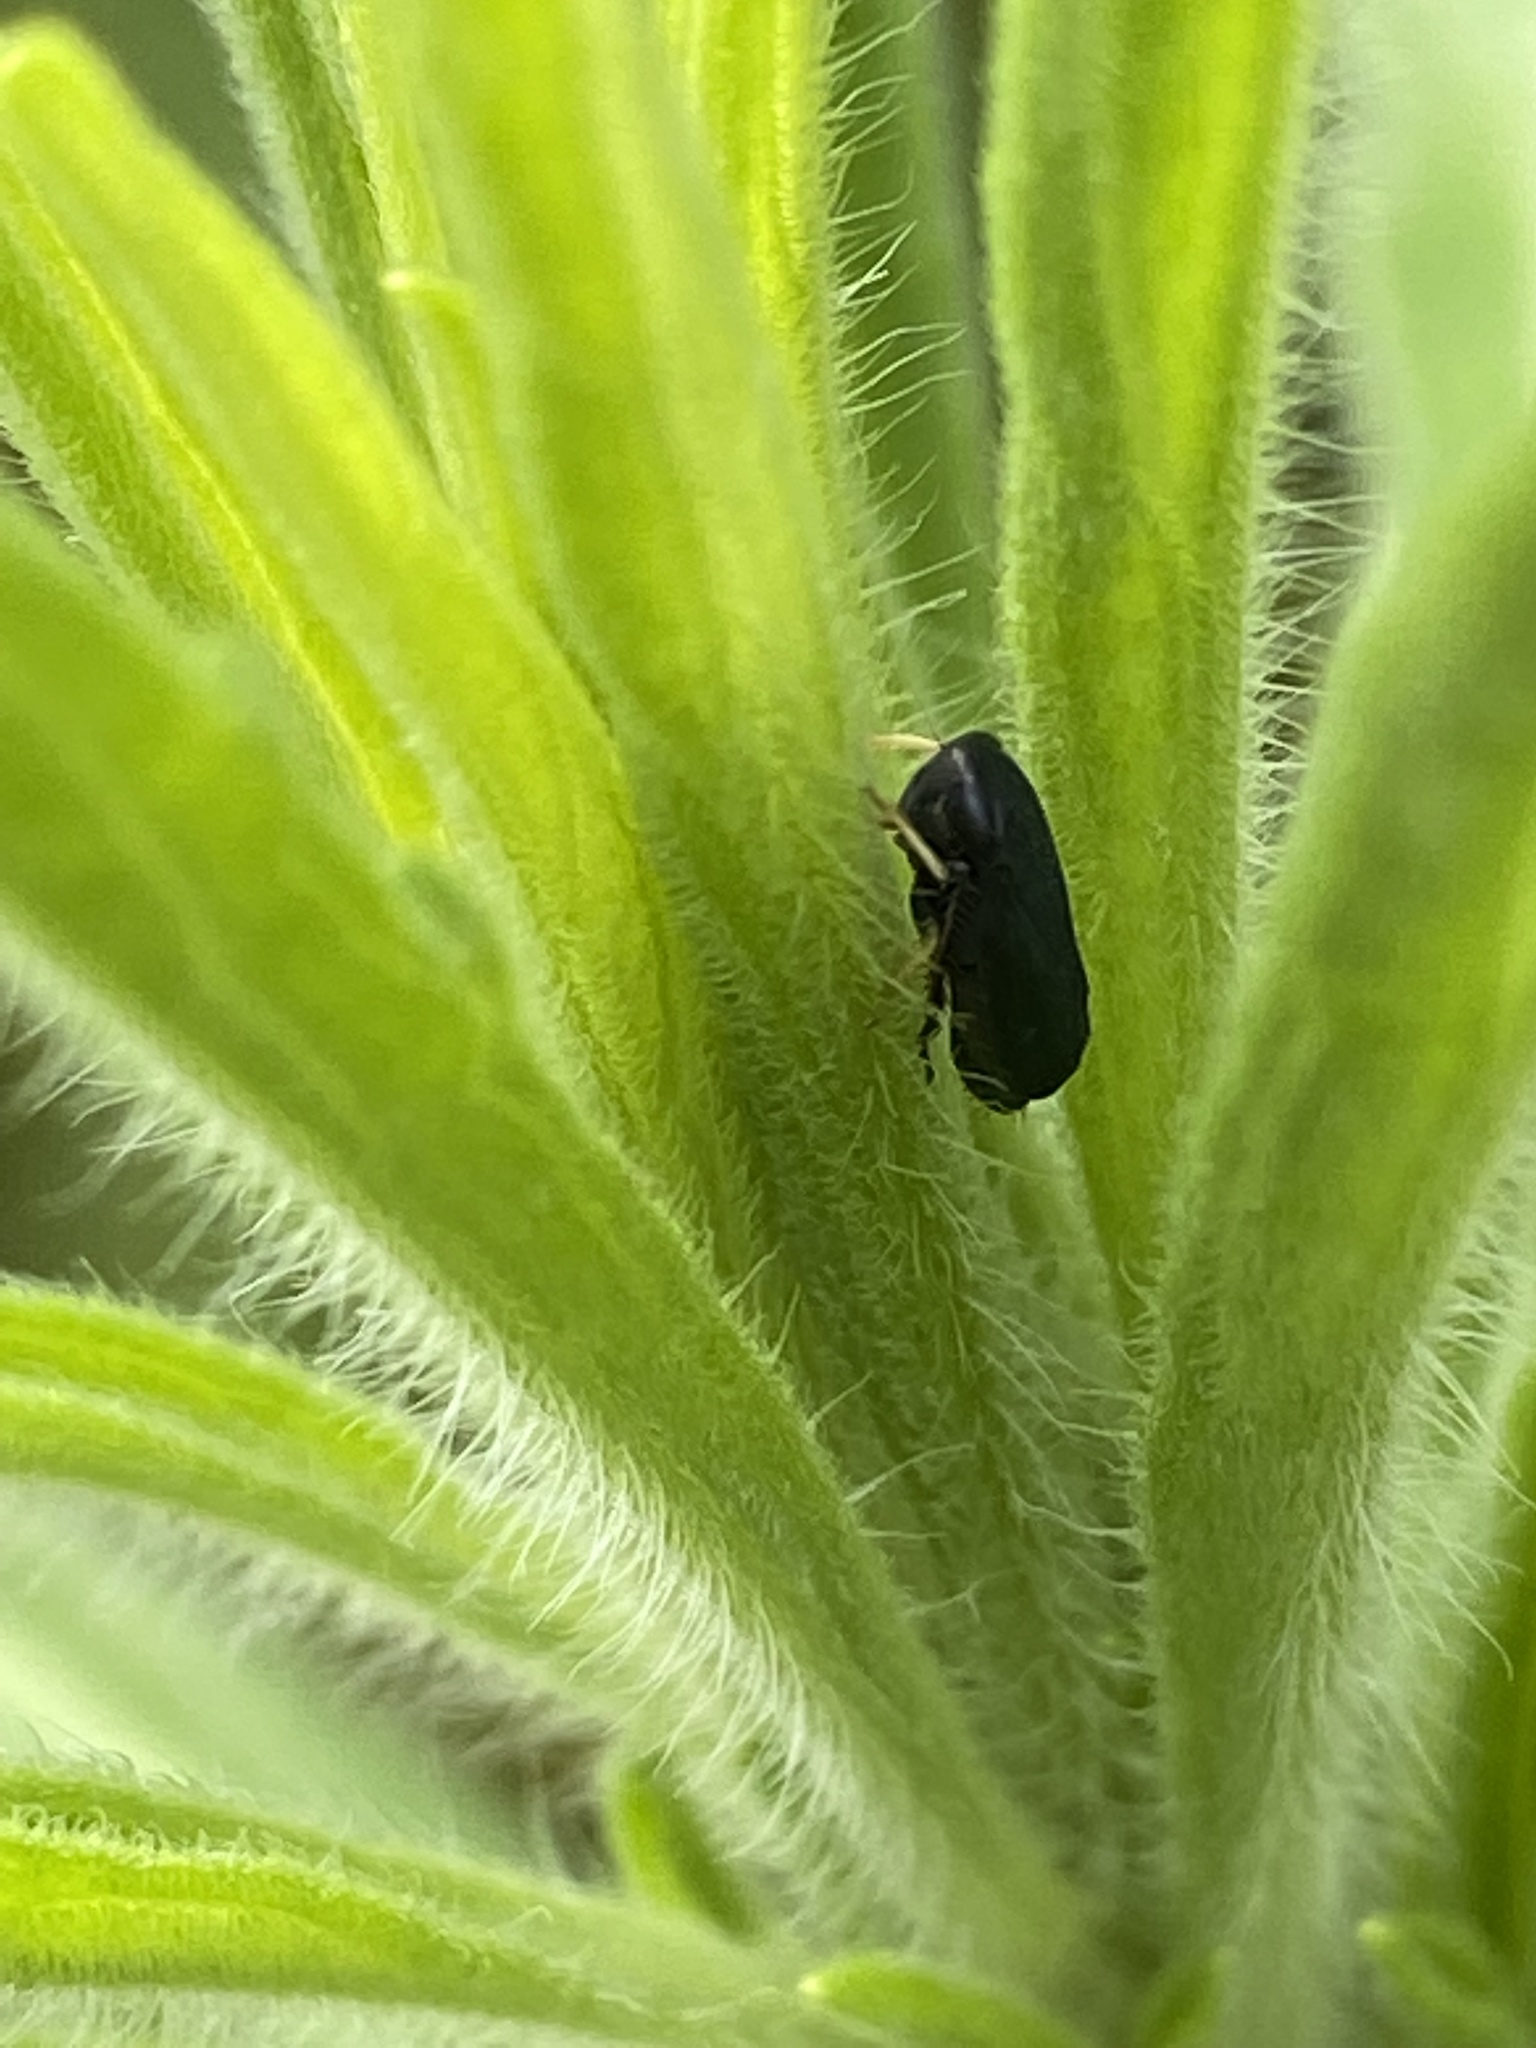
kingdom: Animalia
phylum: Arthropoda
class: Insecta
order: Hemiptera
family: Cicadellidae
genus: Scleroracus
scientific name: Scleroracus anthracinus
